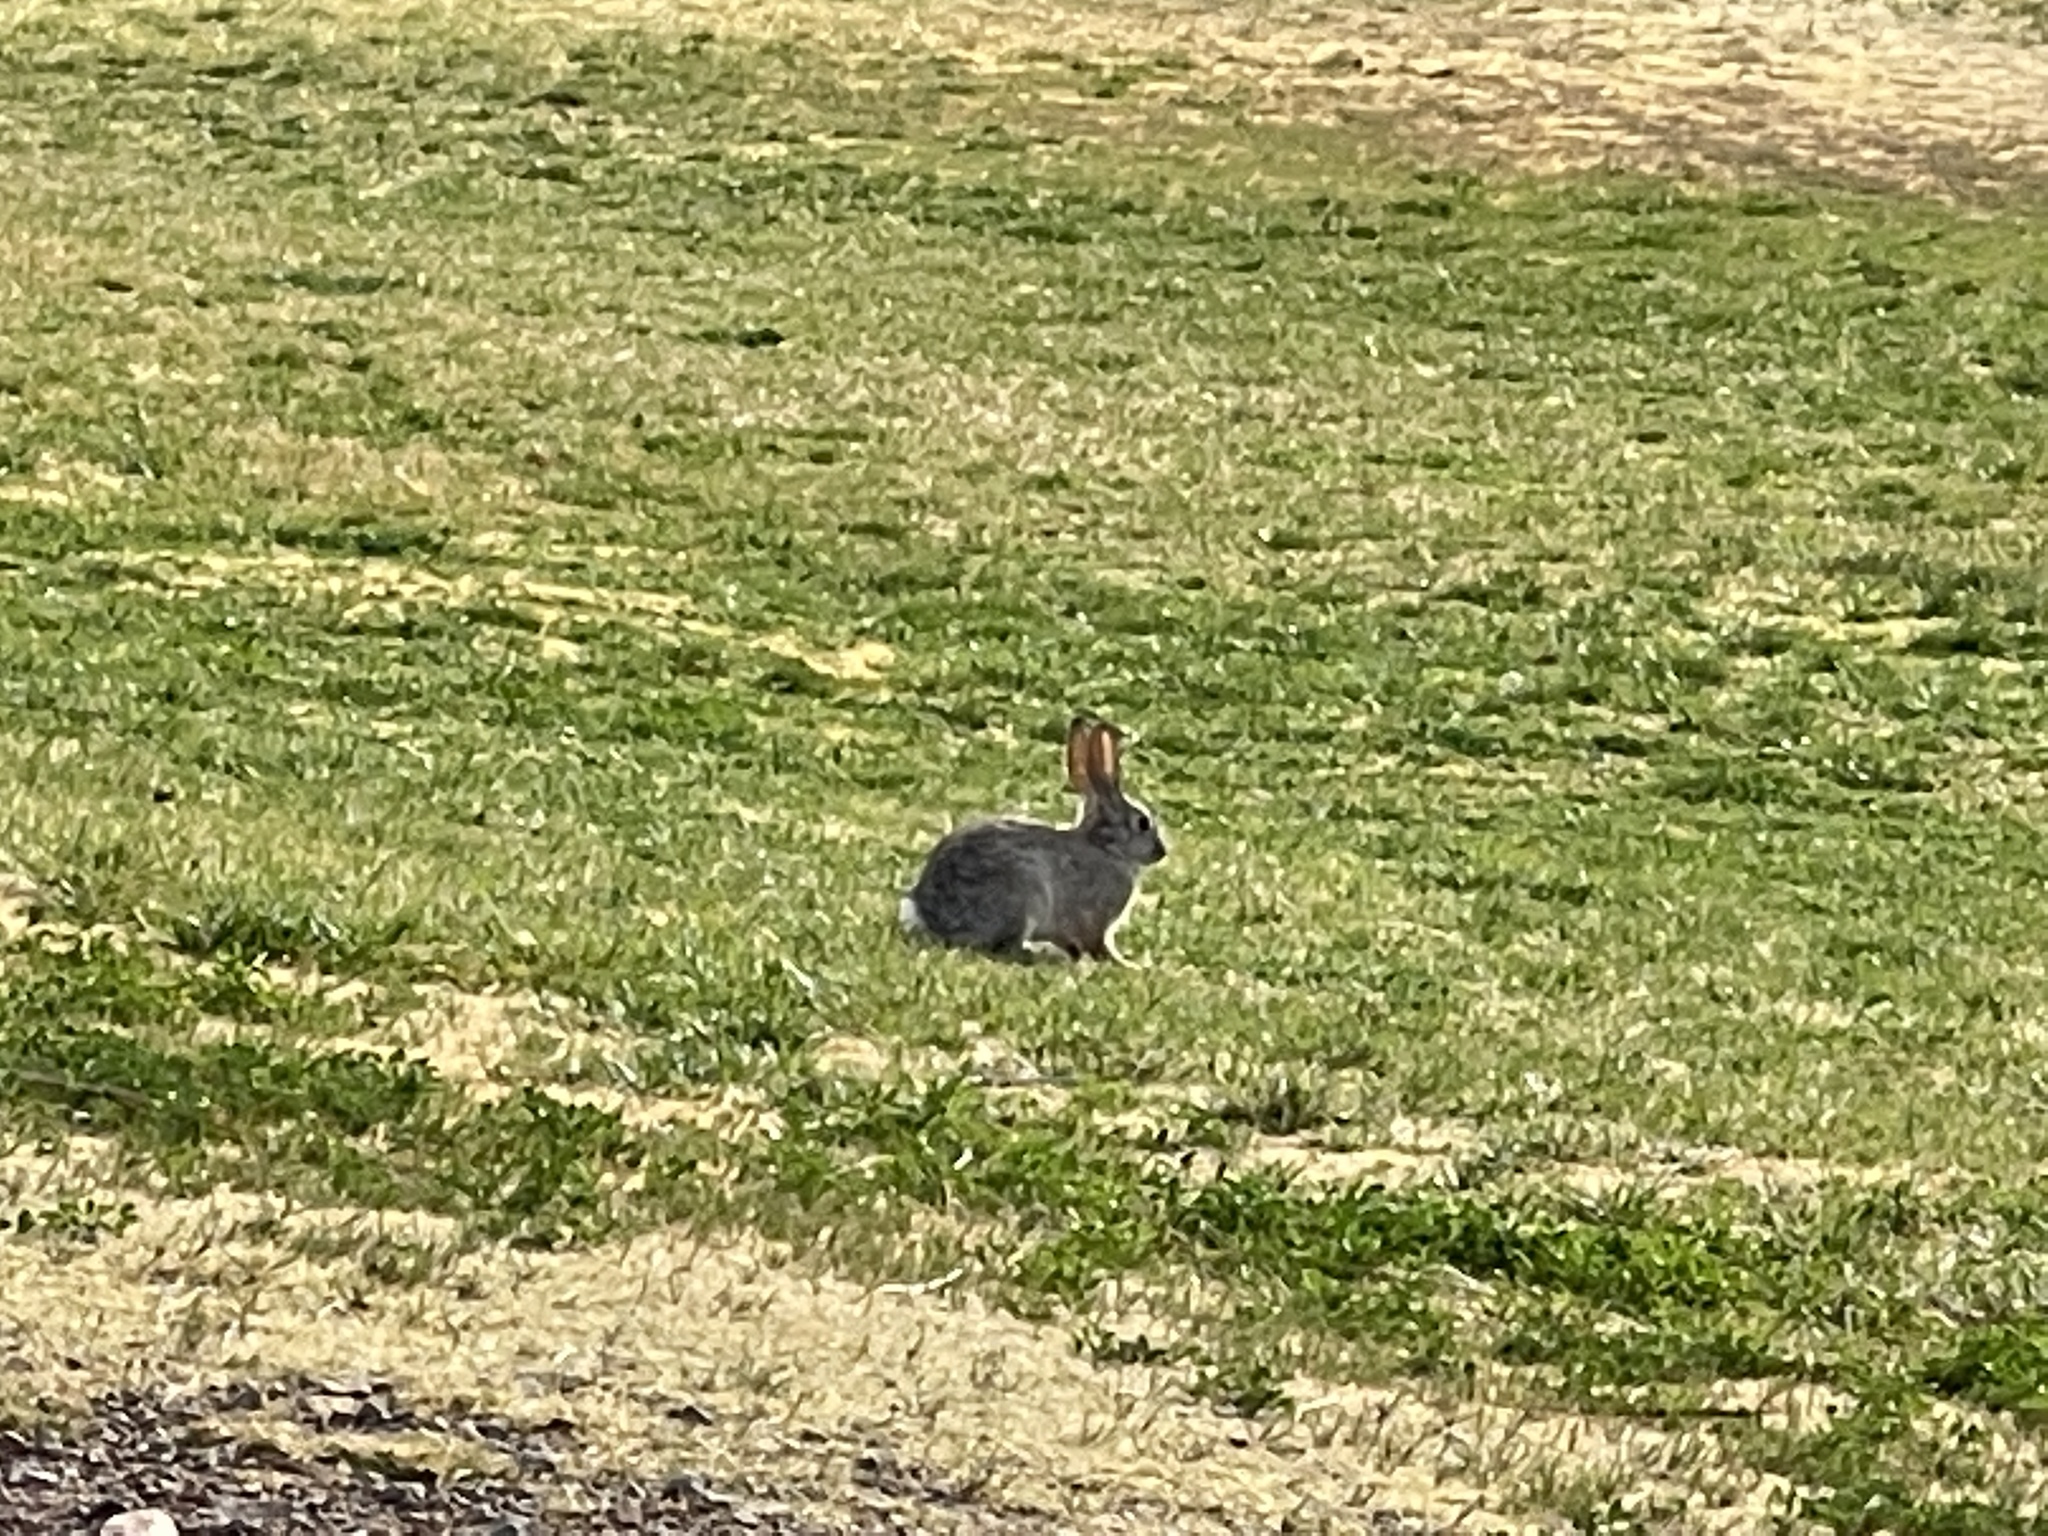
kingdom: Animalia
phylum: Chordata
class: Mammalia
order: Lagomorpha
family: Leporidae
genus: Sylvilagus
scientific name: Sylvilagus audubonii
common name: Desert cottontail
